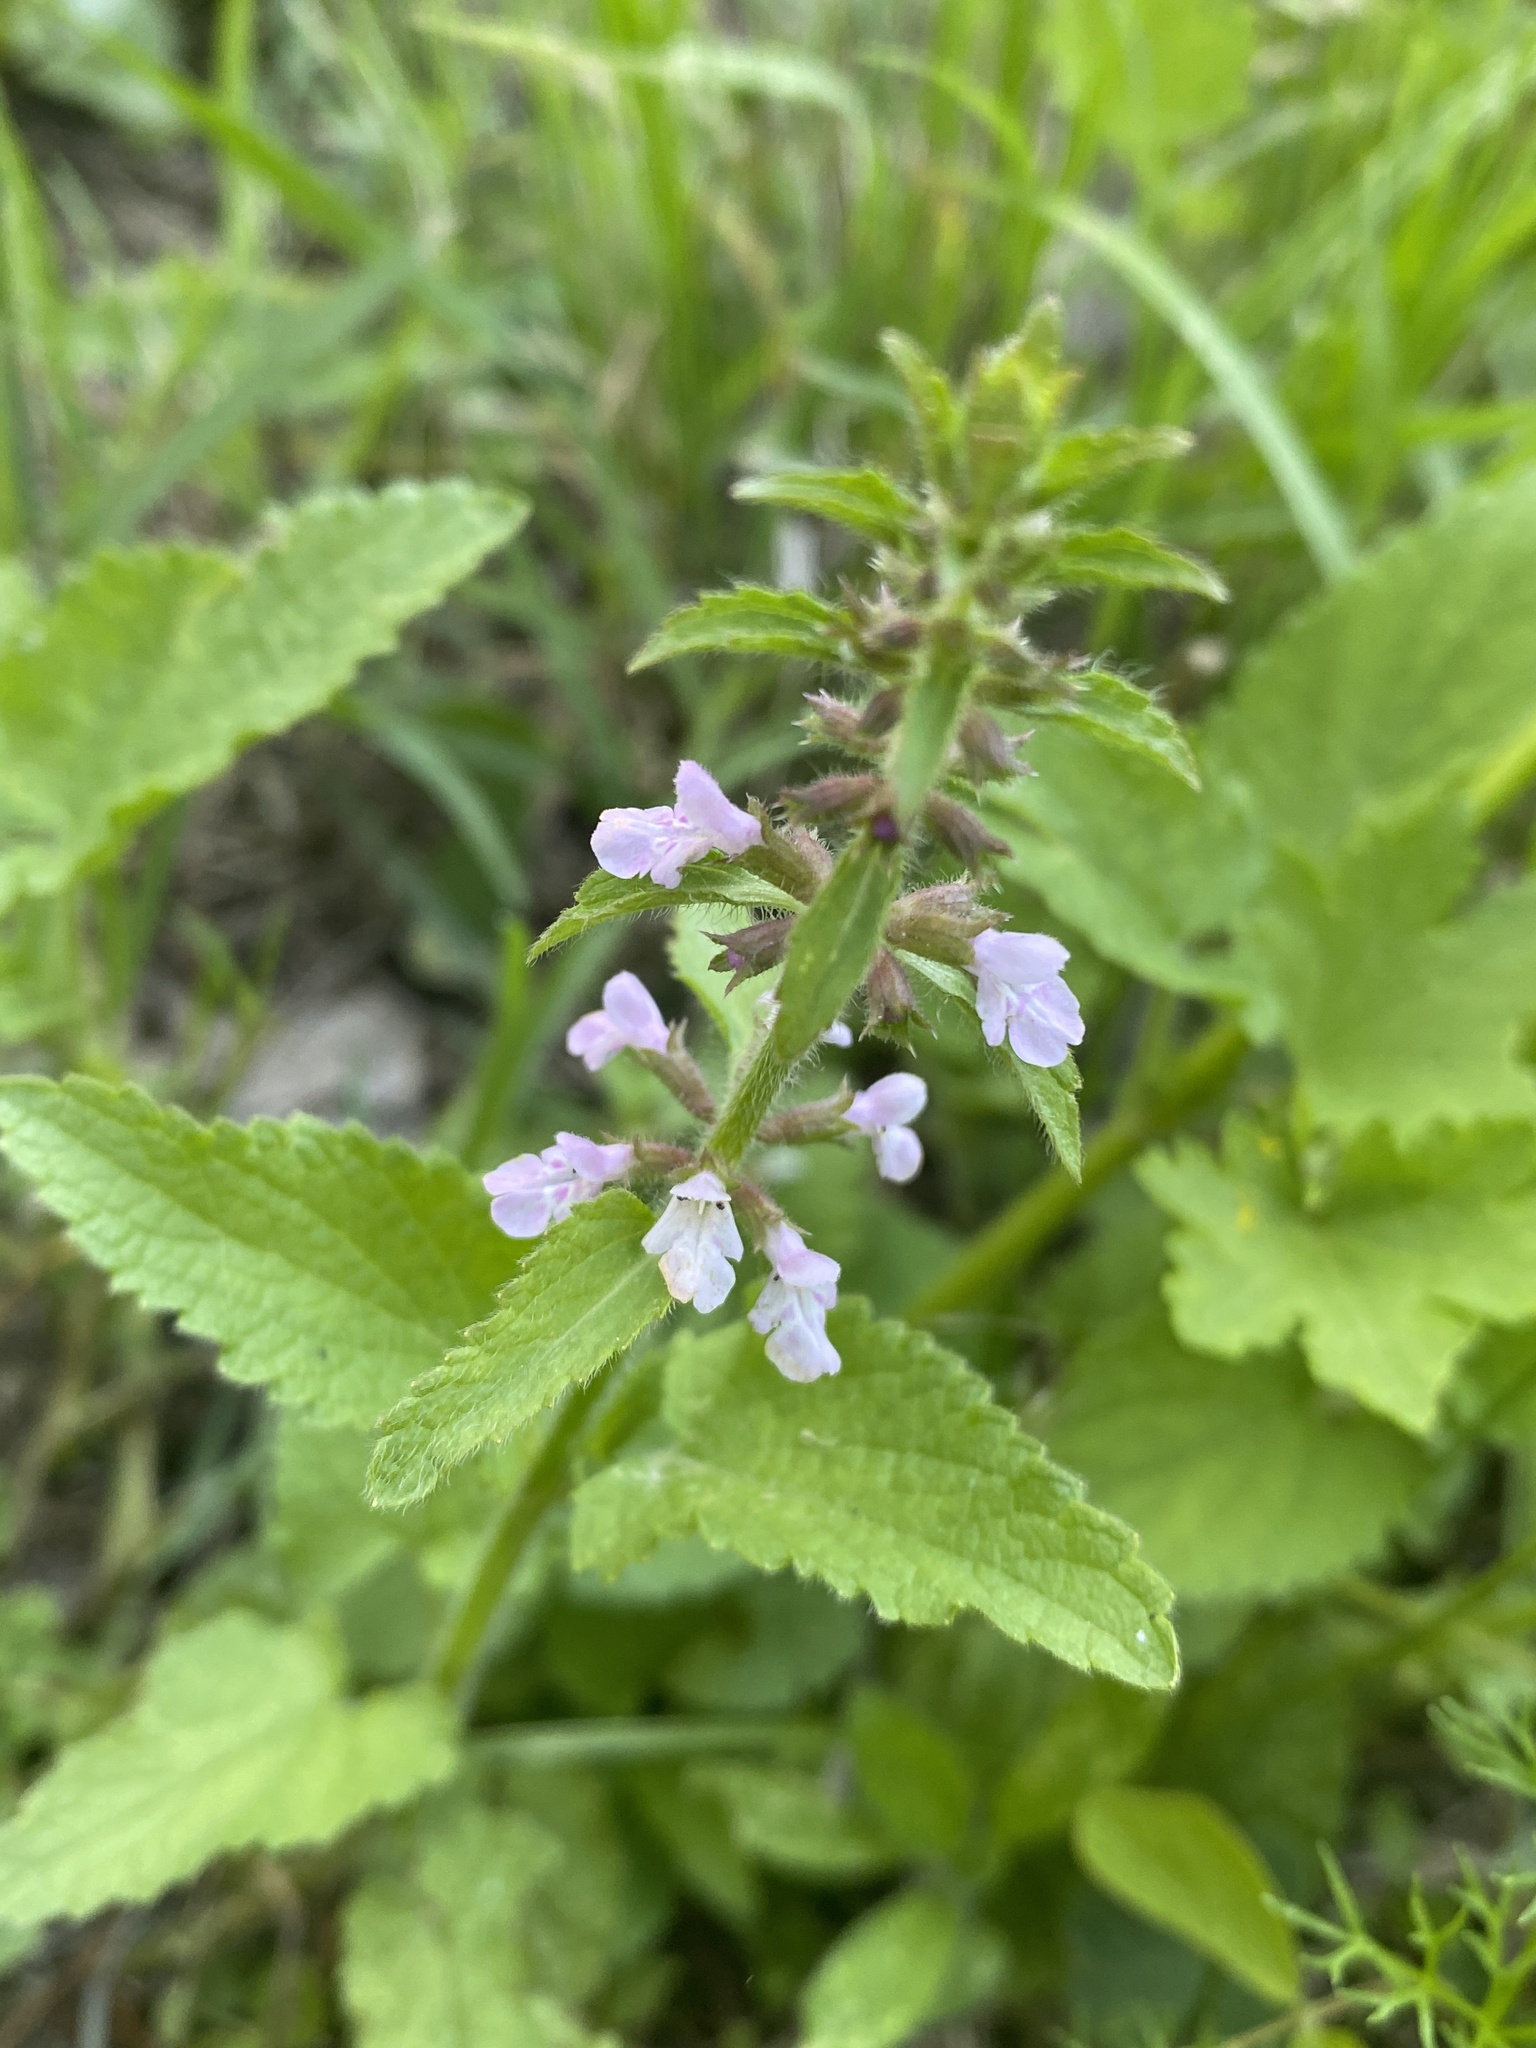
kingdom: Plantae
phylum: Tracheophyta
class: Magnoliopsida
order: Lamiales
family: Lamiaceae
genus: Stachys
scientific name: Stachys arvensis
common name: Field woundwort
